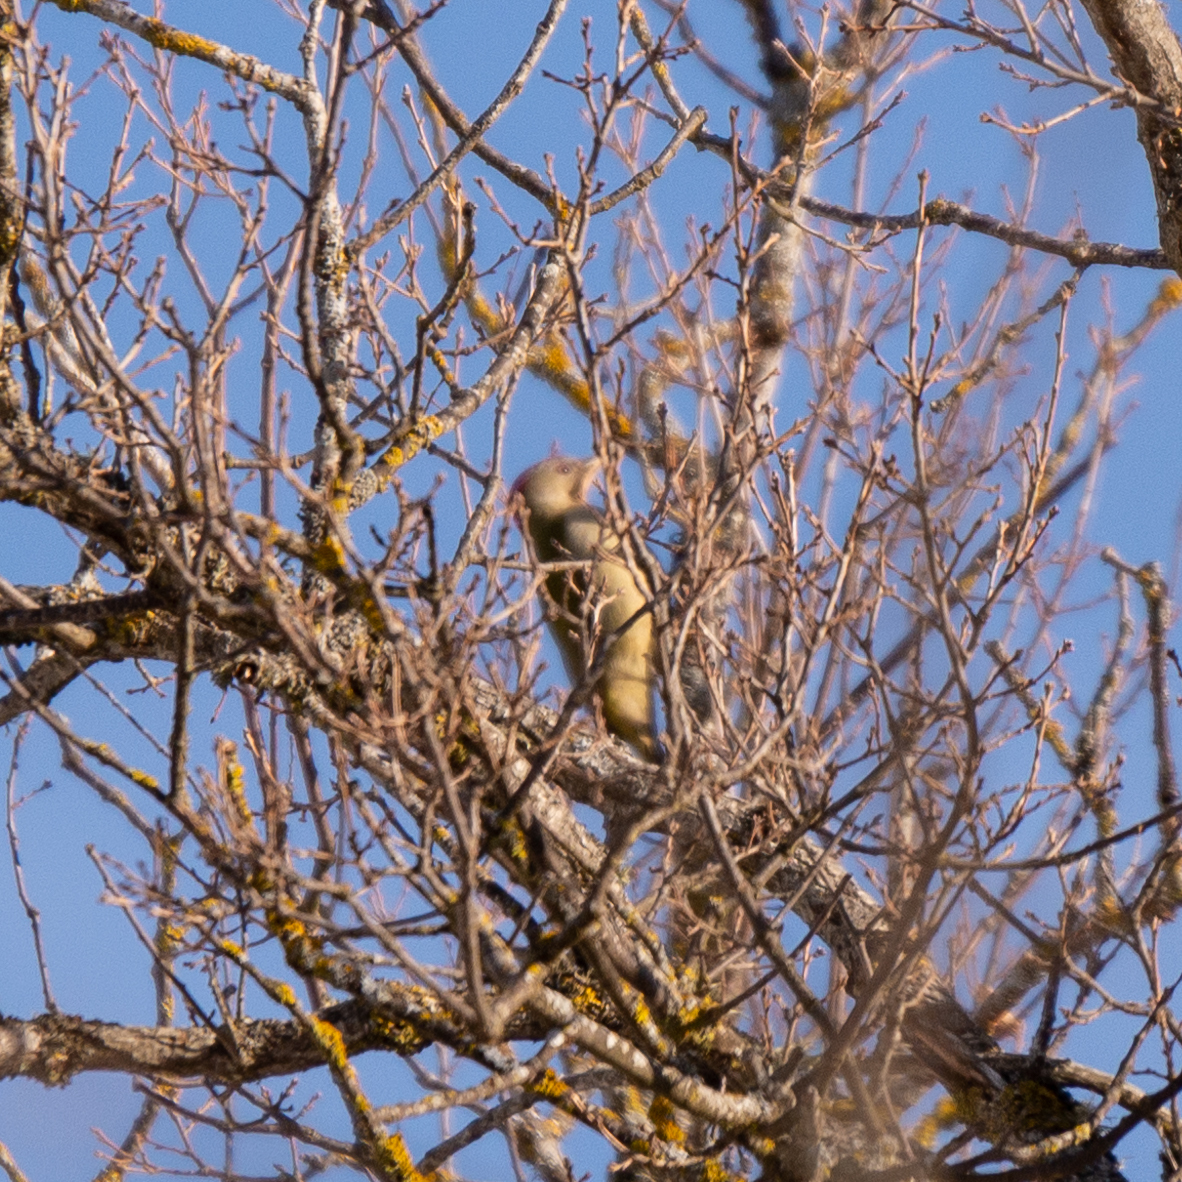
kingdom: Animalia
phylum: Chordata
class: Aves
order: Piciformes
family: Picidae
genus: Picus
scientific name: Picus sharpei
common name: Iberian green woodpecker
